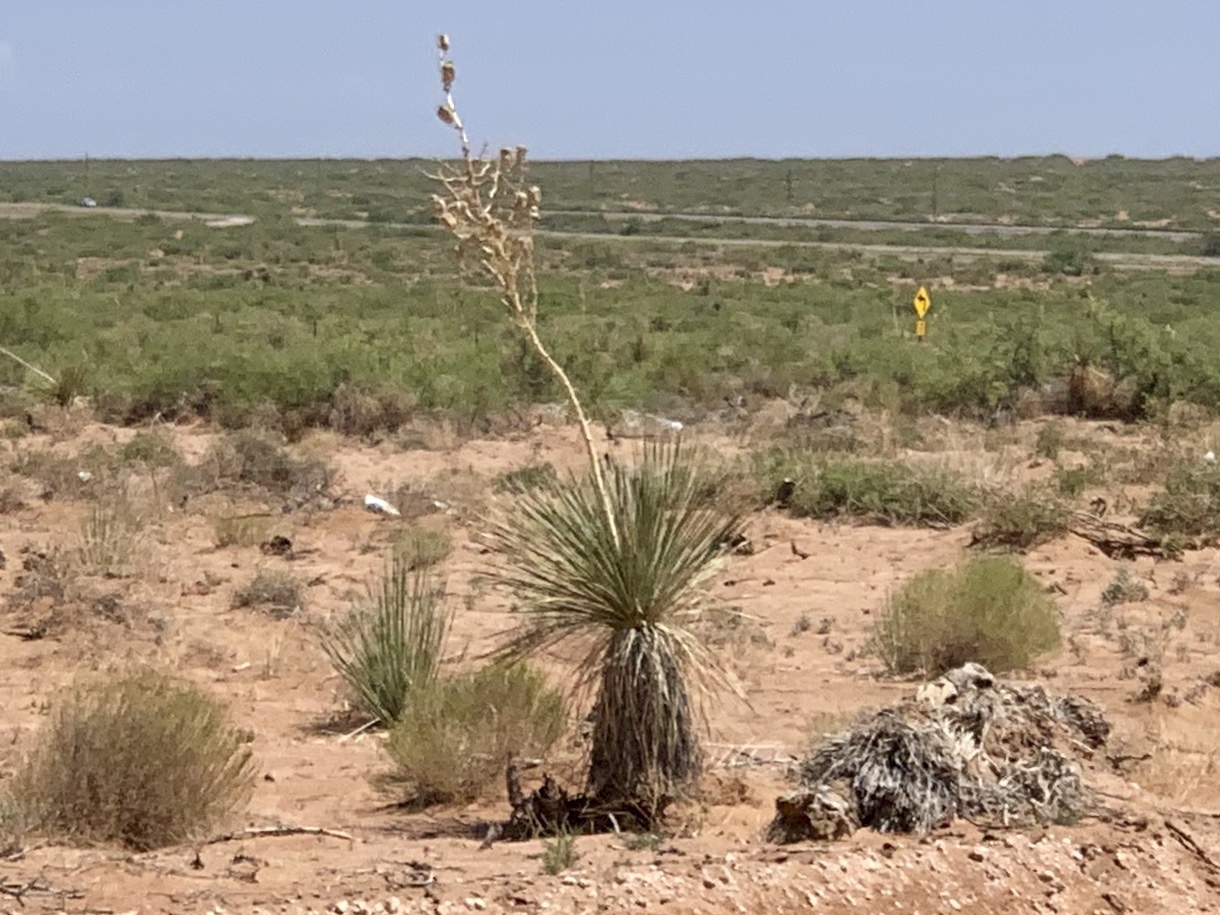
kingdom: Plantae
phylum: Tracheophyta
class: Liliopsida
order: Asparagales
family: Asparagaceae
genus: Yucca
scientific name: Yucca elata
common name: Palmella
